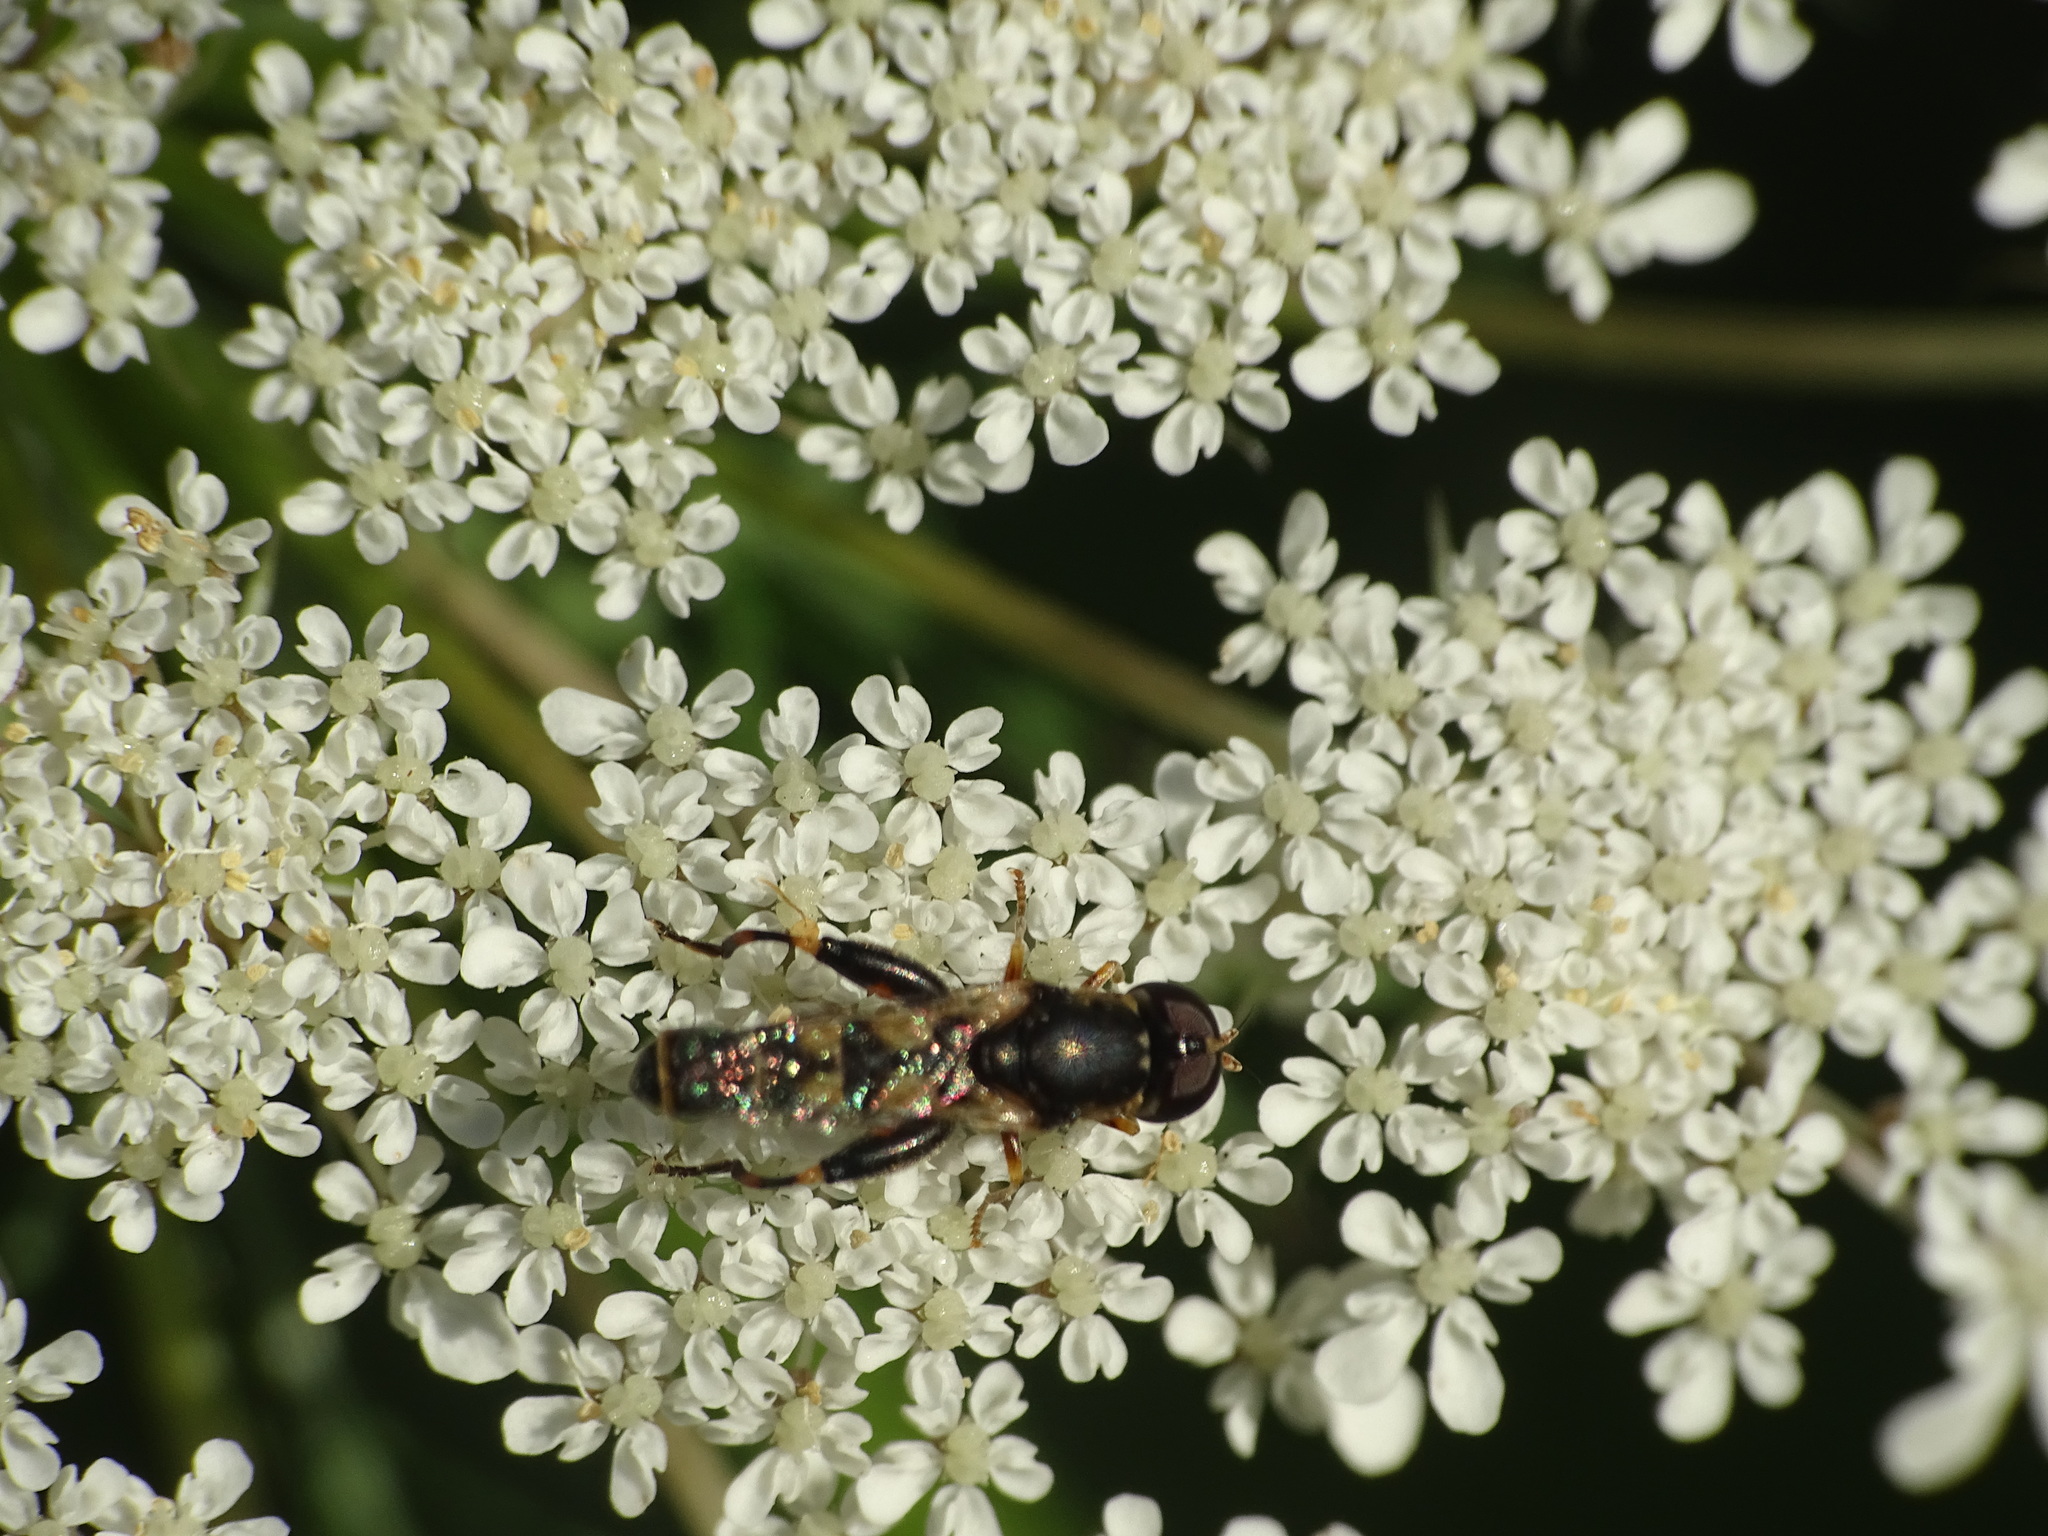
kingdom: Animalia
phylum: Arthropoda
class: Insecta
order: Diptera
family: Syrphidae
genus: Syritta
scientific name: Syritta pipiens
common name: Hover fly
